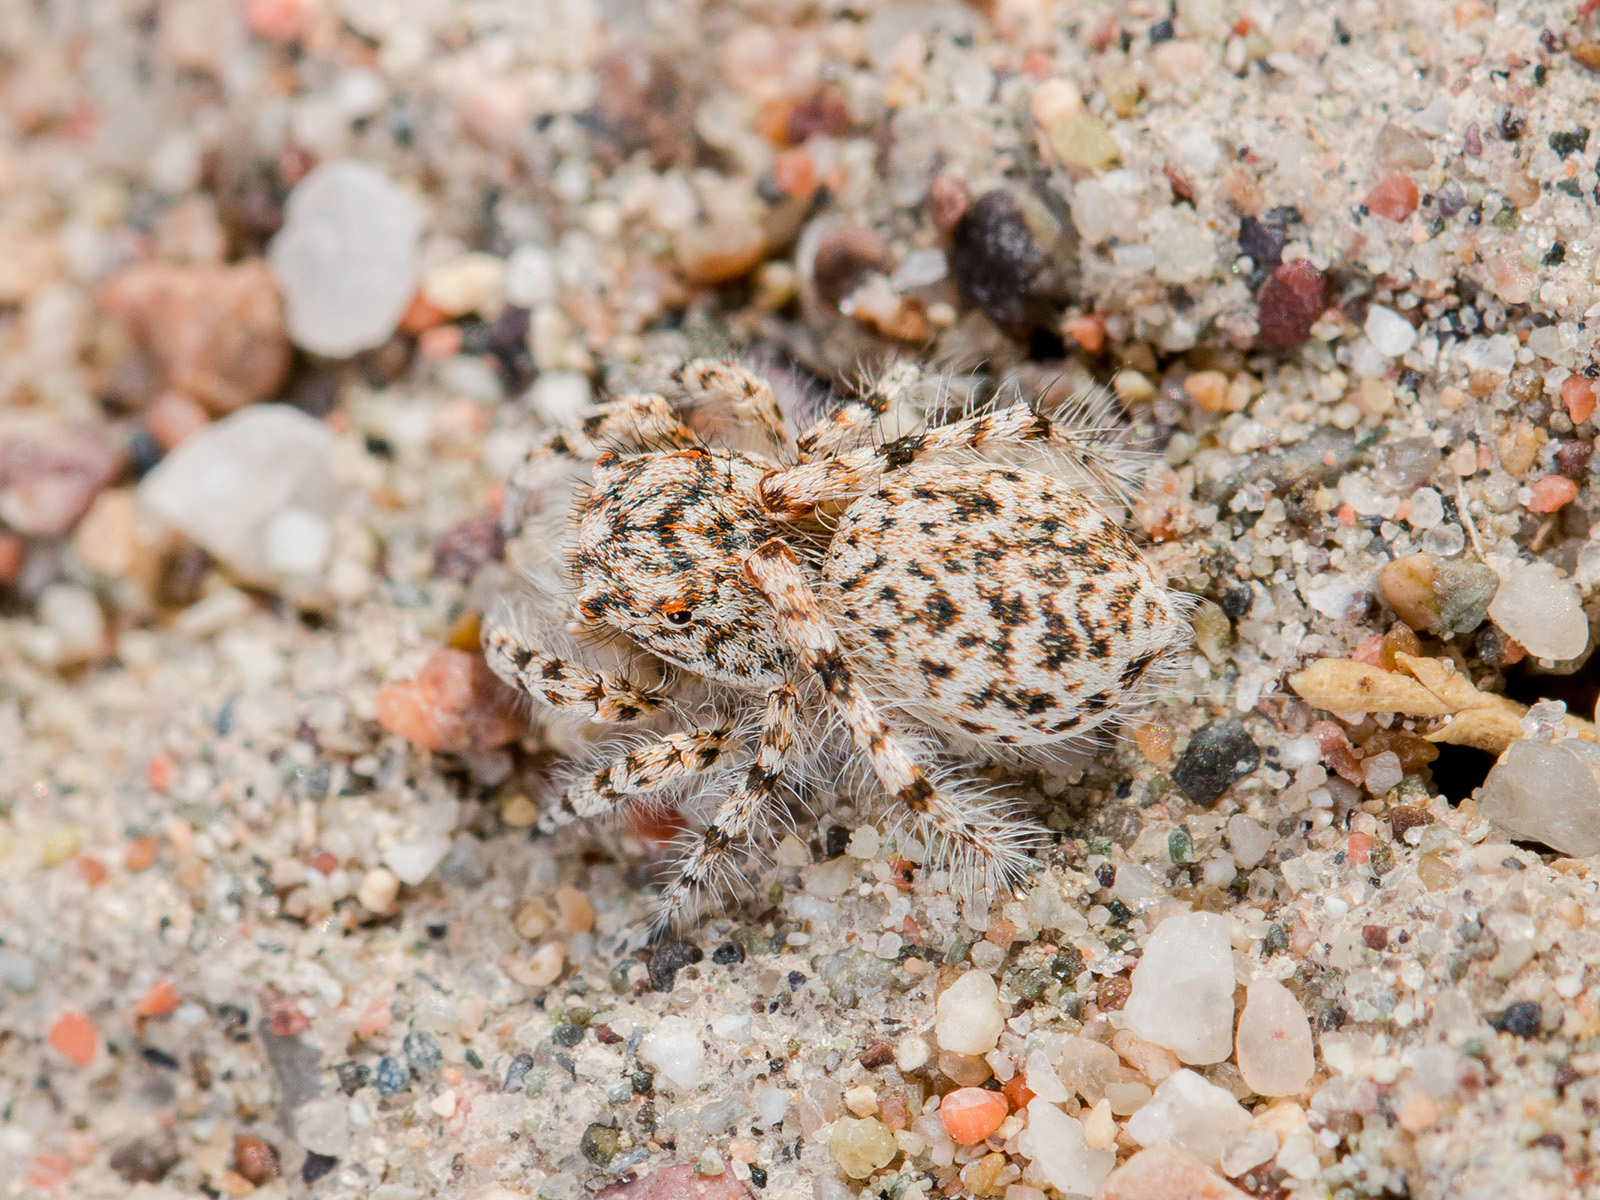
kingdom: Animalia
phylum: Arthropoda
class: Arachnida
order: Araneae
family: Salticidae
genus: Yllenus
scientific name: Yllenus uiguricus
